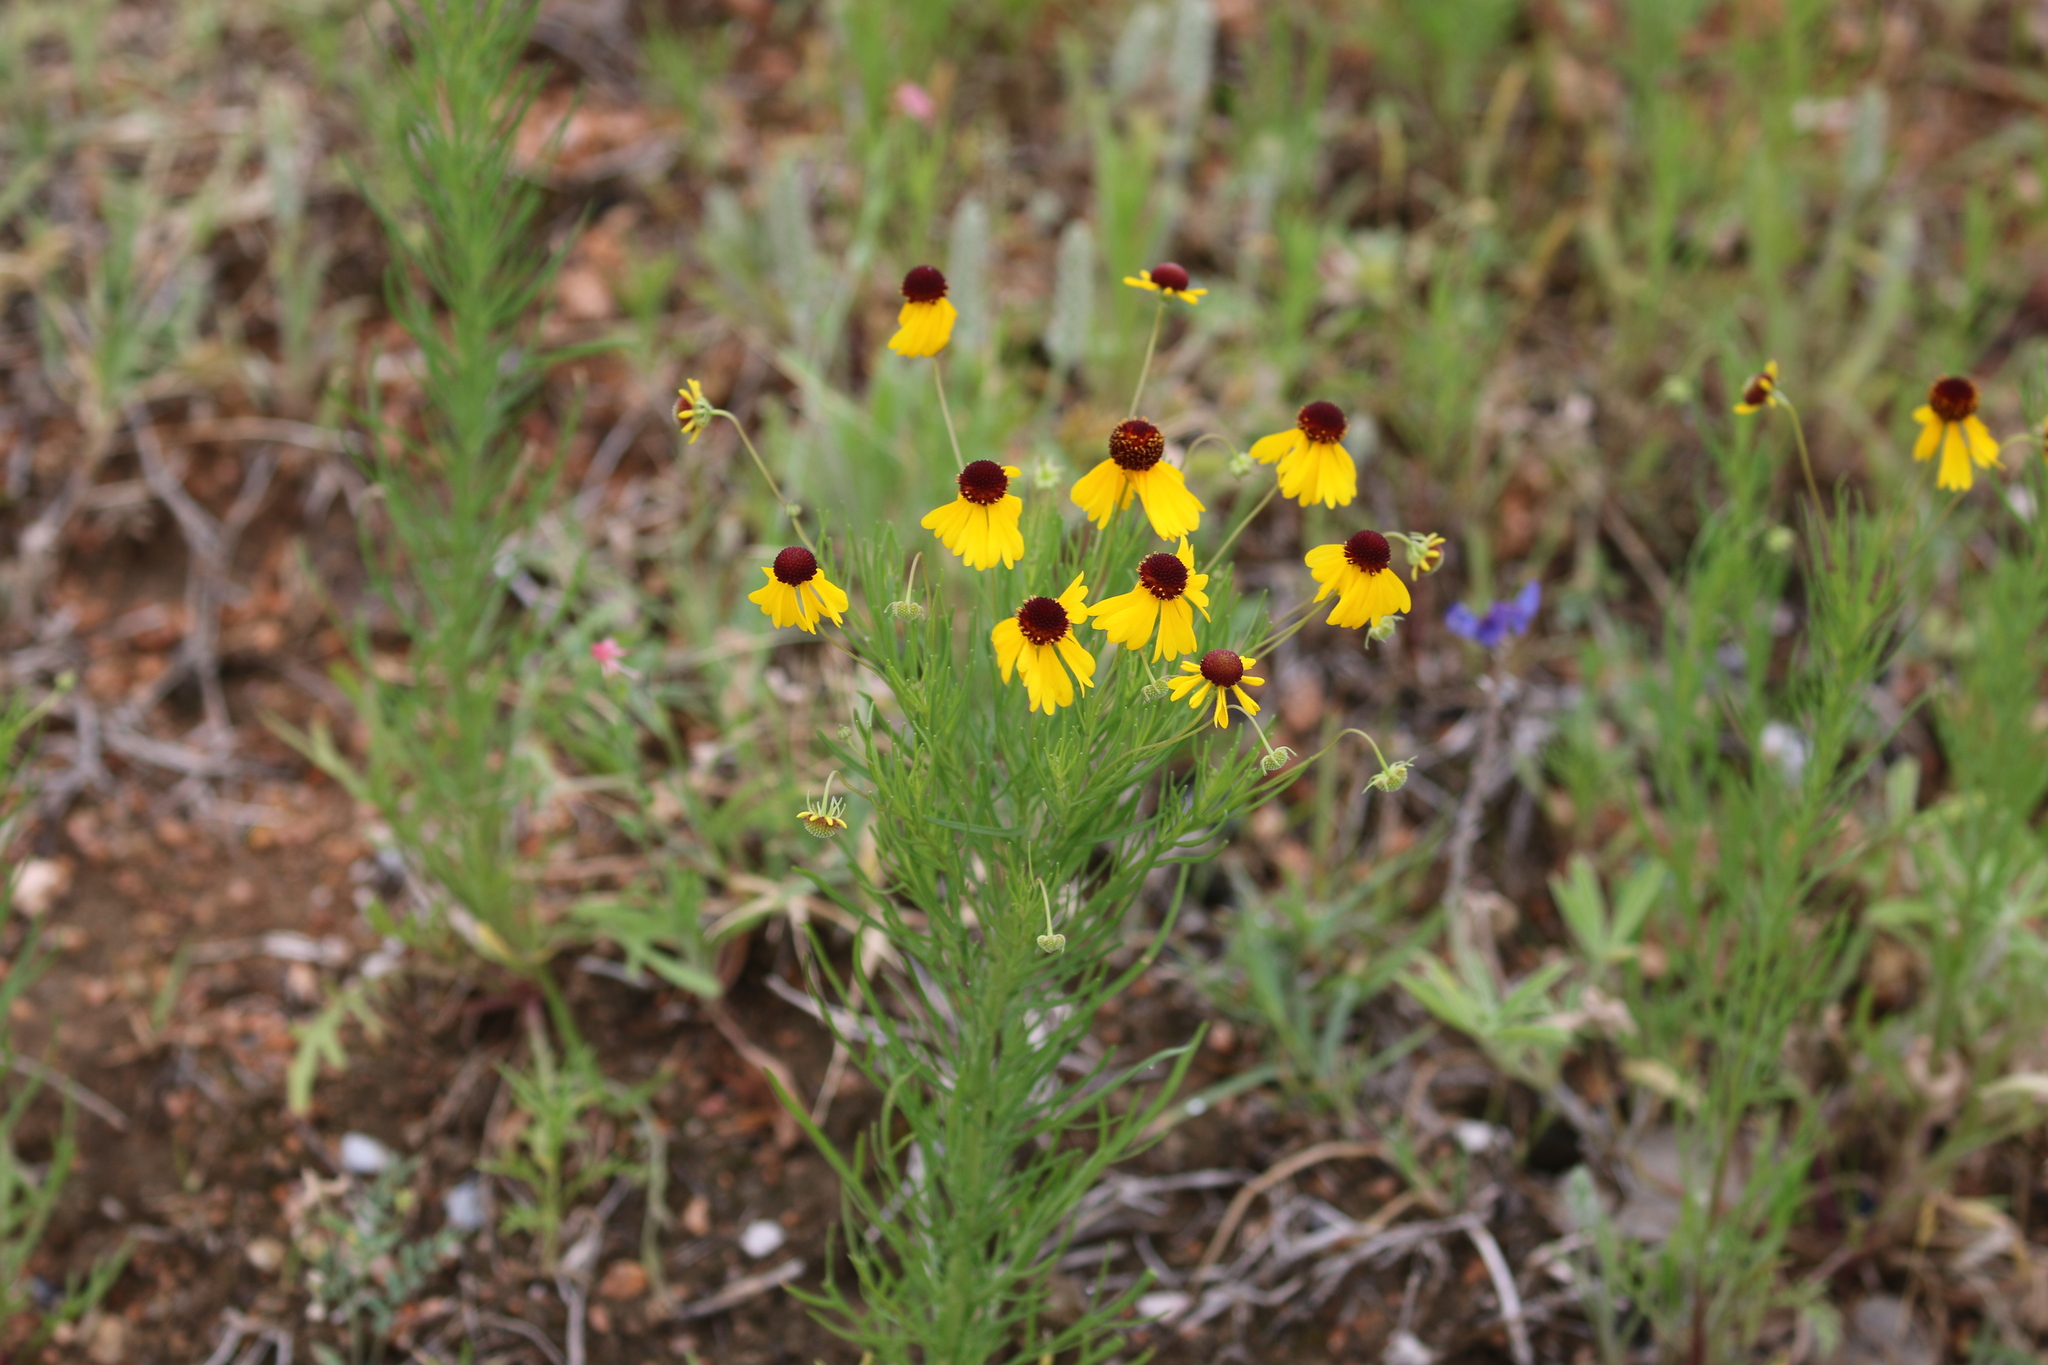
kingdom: Plantae
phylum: Tracheophyta
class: Magnoliopsida
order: Asterales
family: Asteraceae
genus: Helenium
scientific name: Helenium amarum
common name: Bitter sneezeweed
